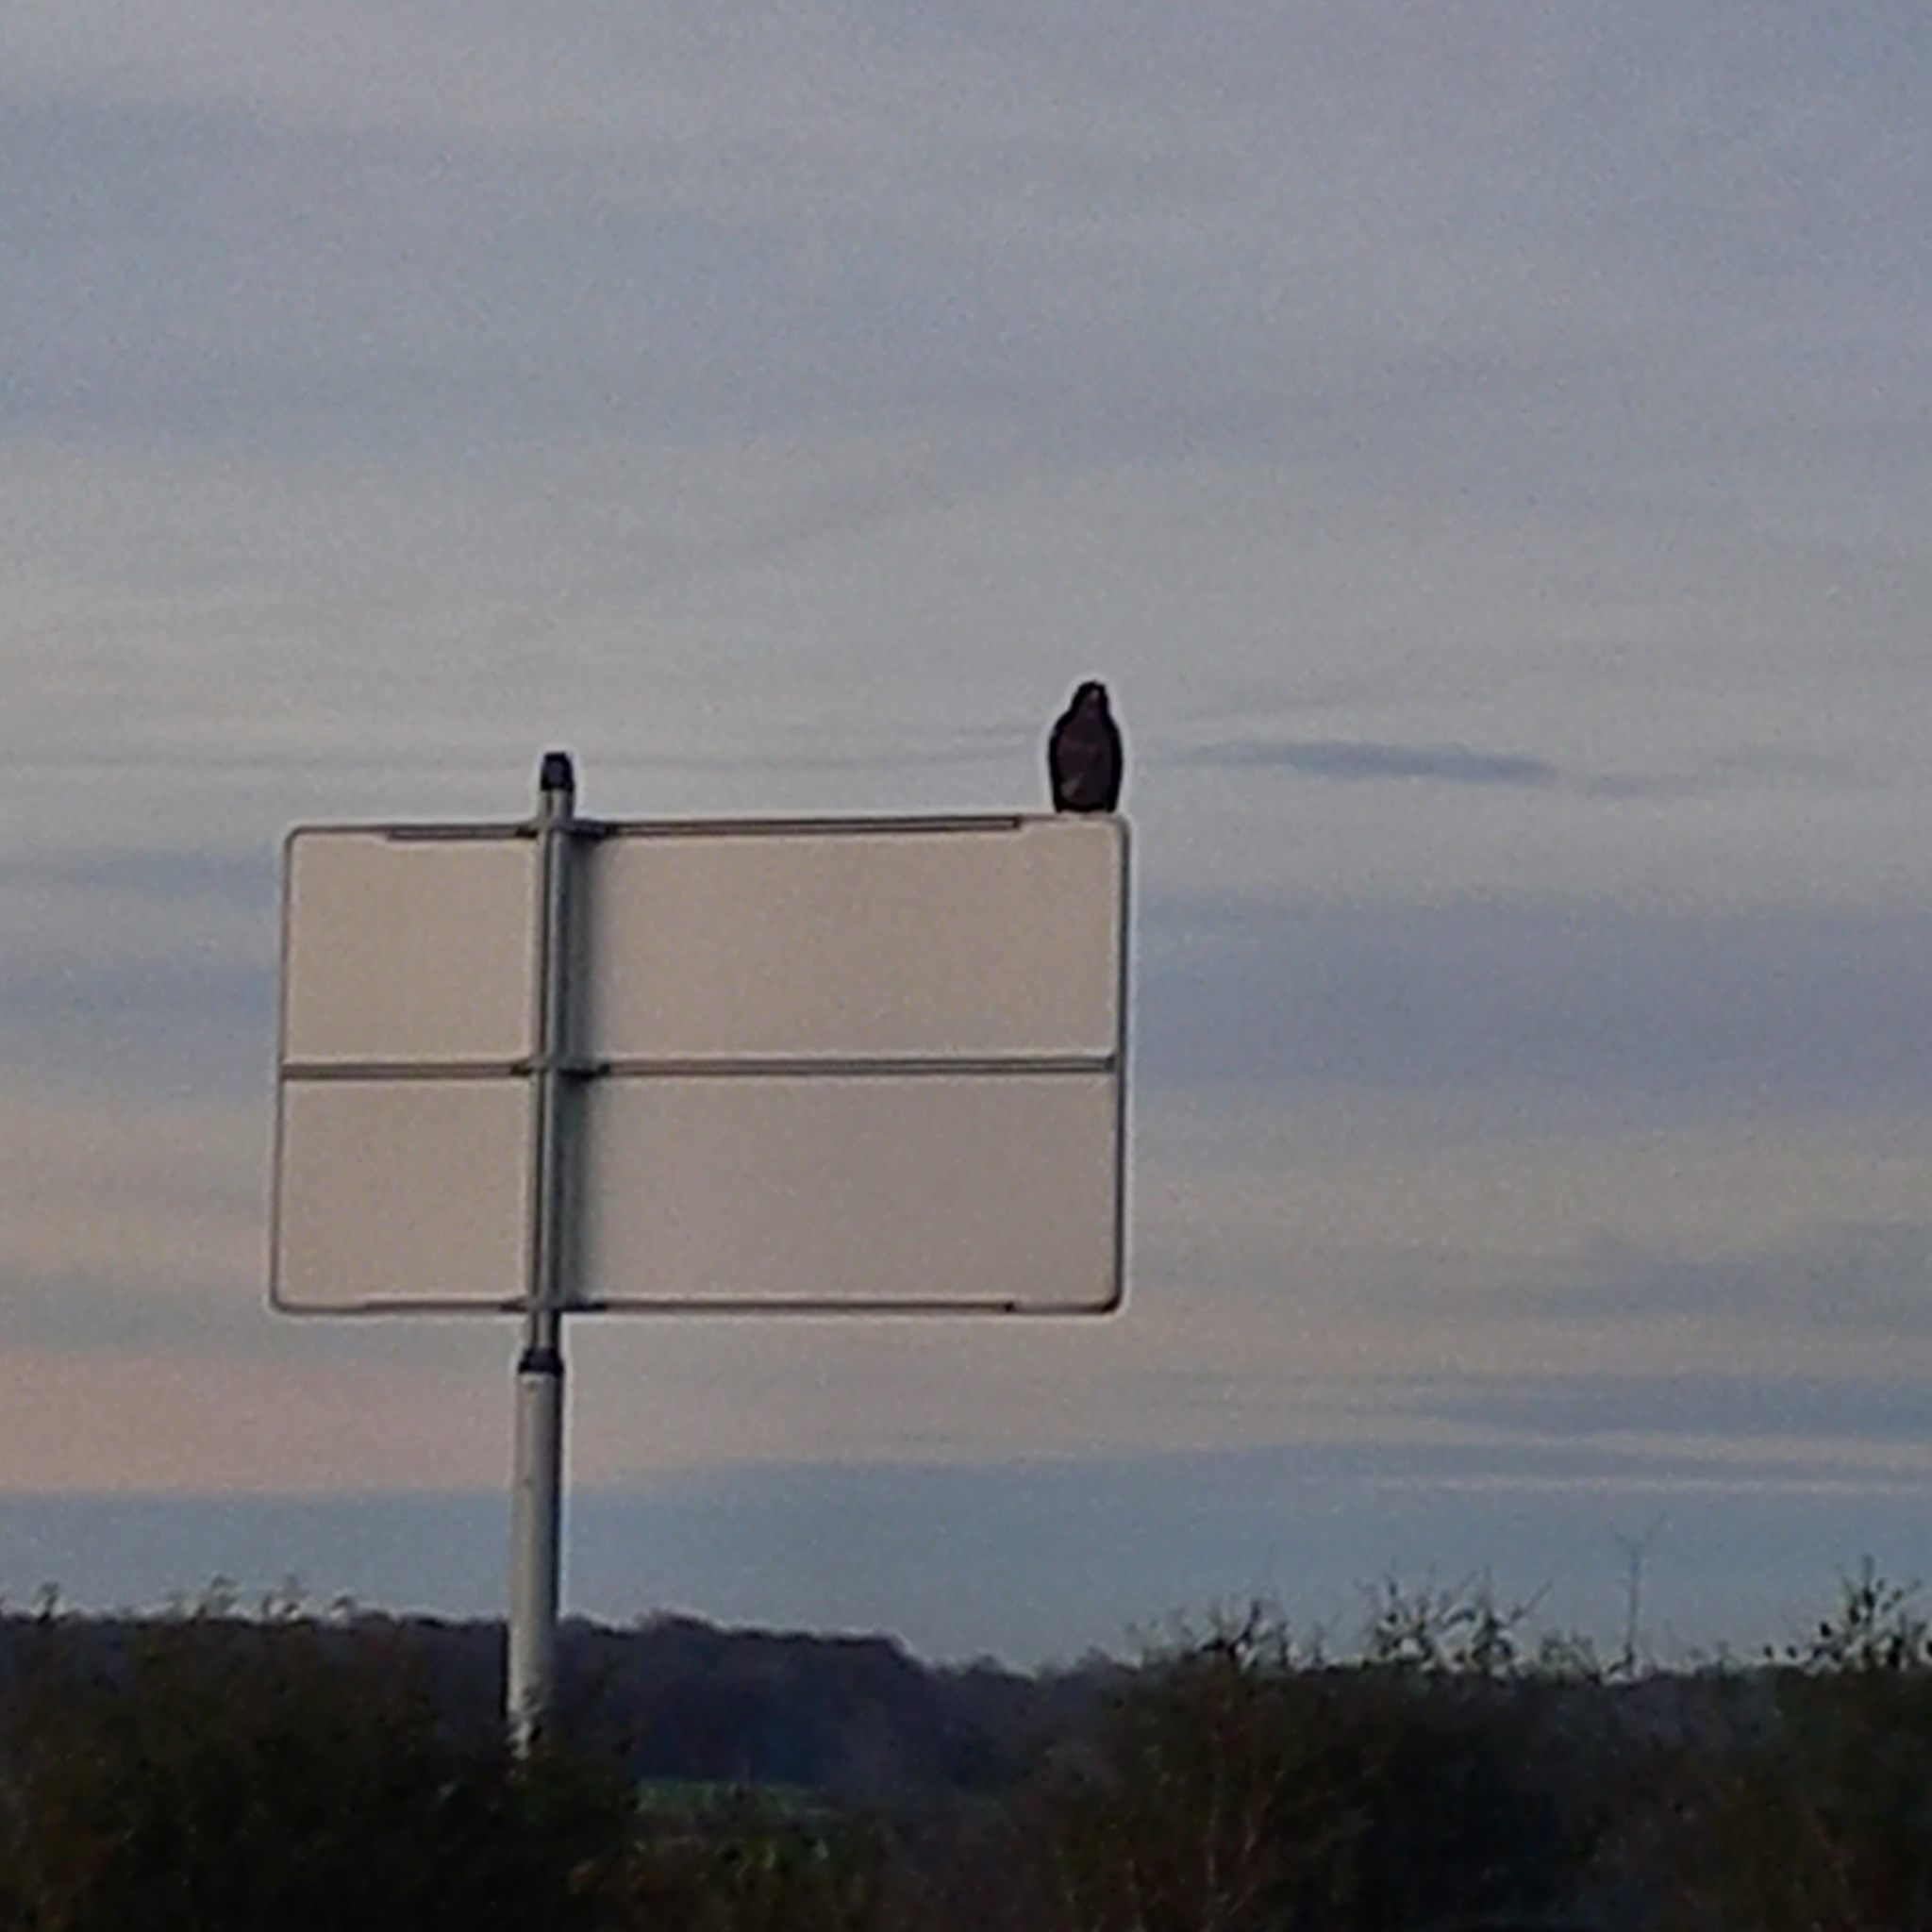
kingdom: Animalia
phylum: Chordata
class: Aves
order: Accipitriformes
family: Accipitridae
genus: Buteo
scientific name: Buteo buteo
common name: Common buzzard
